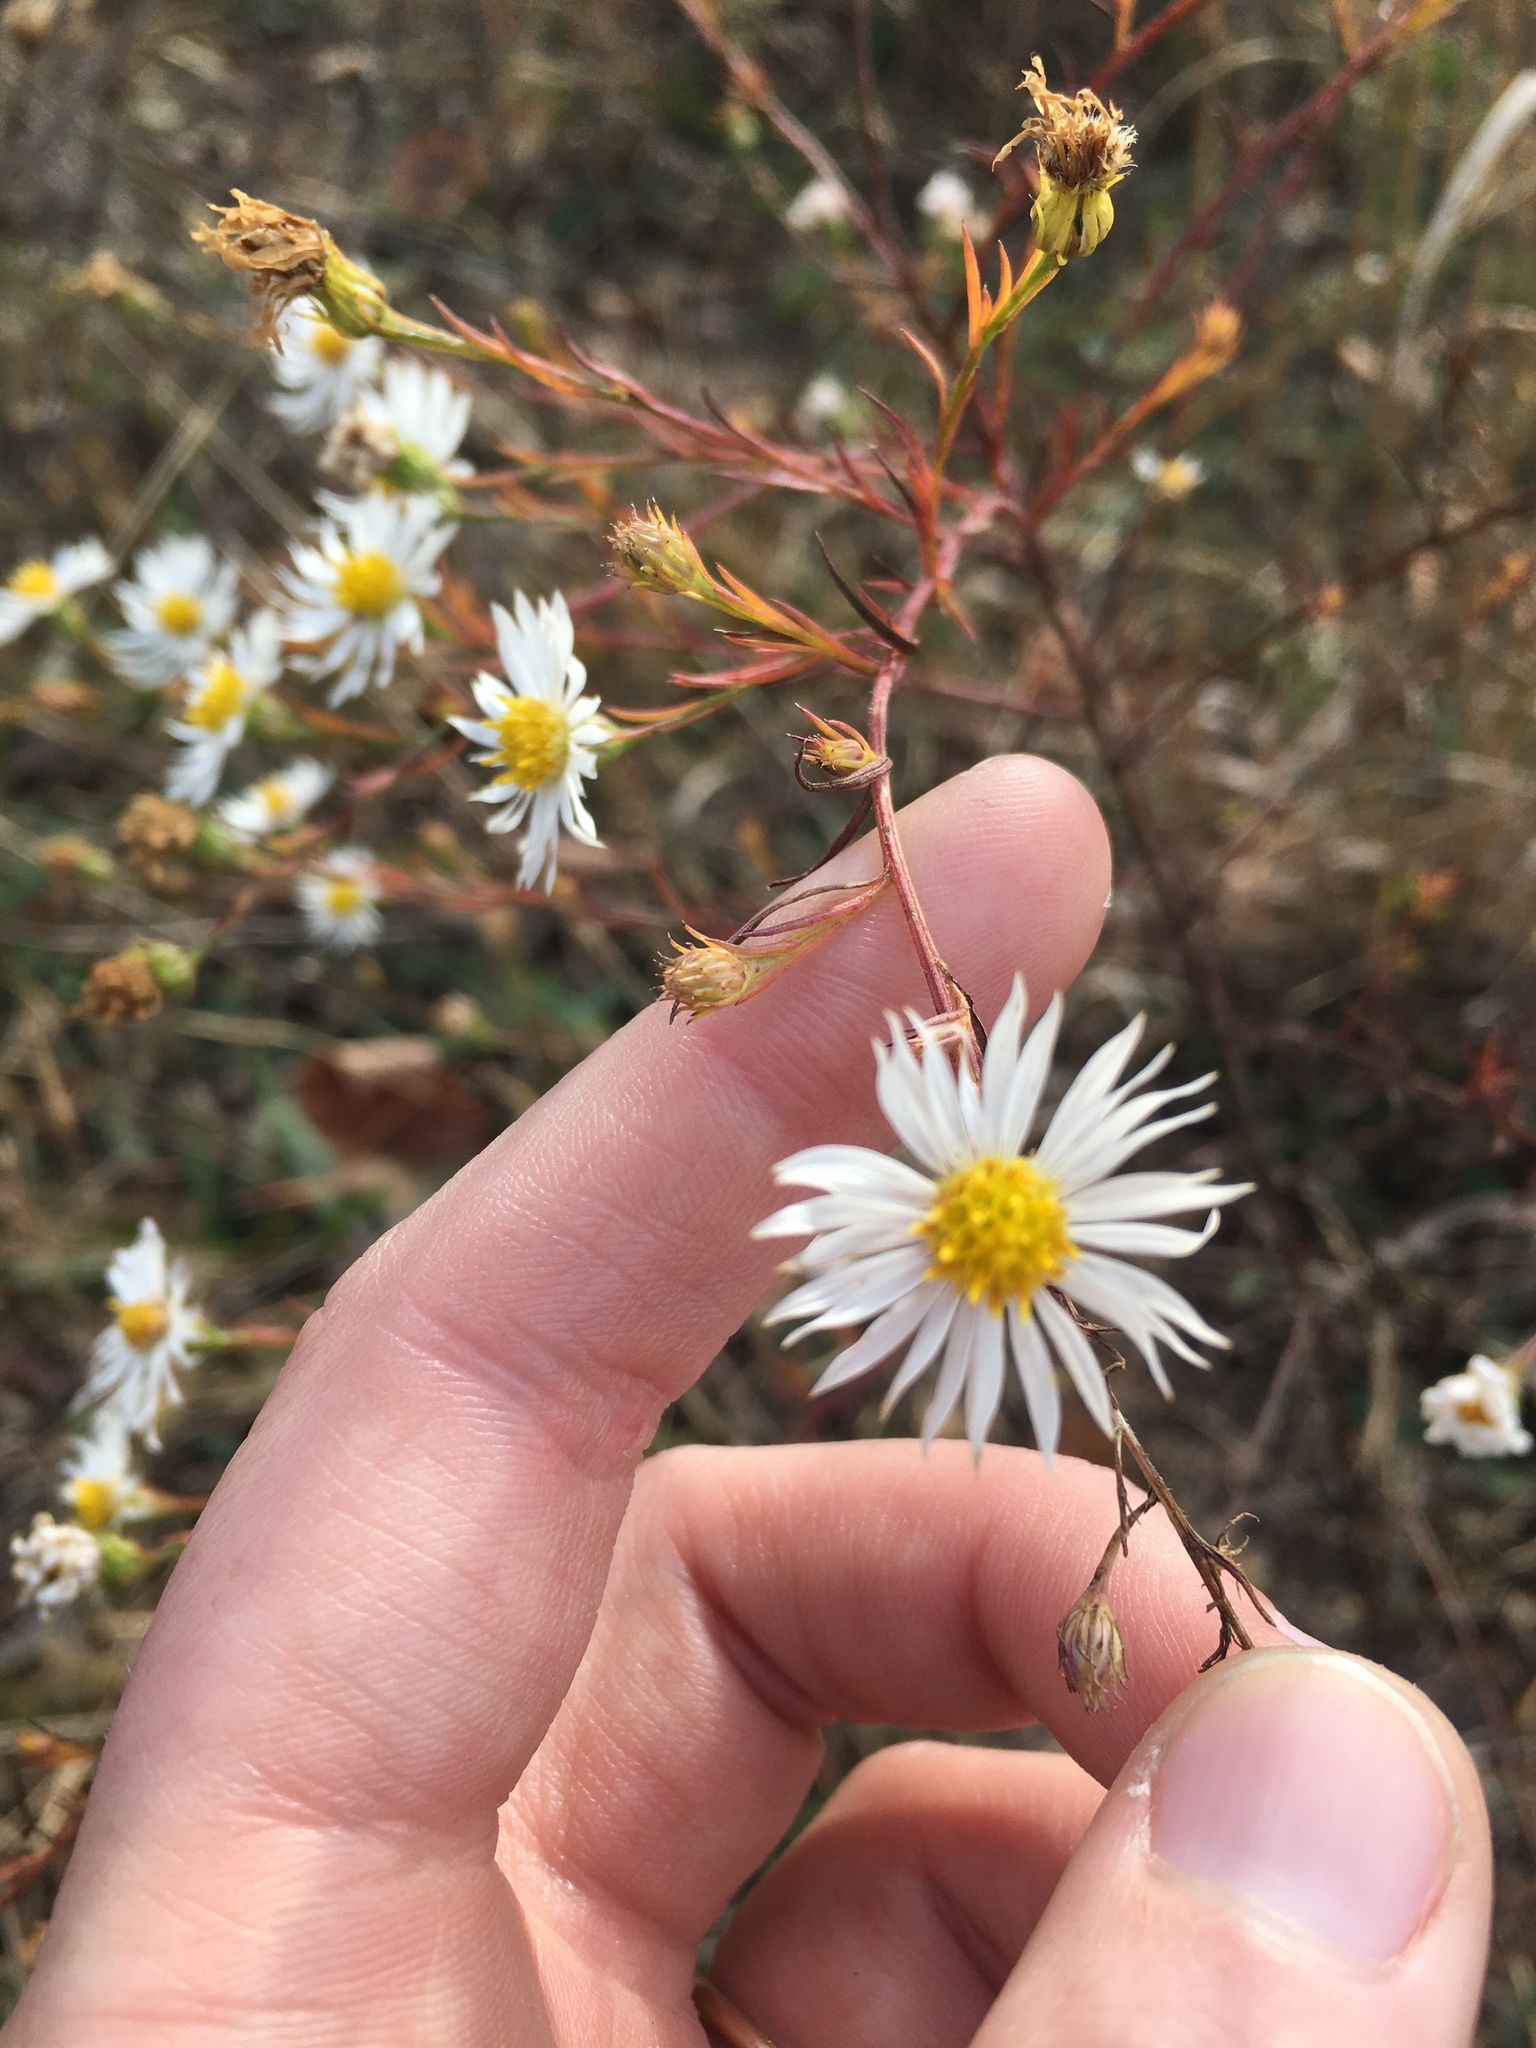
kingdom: Plantae
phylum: Tracheophyta
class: Magnoliopsida
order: Asterales
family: Asteraceae
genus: Symphyotrichum
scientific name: Symphyotrichum pilosum
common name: Awl aster
